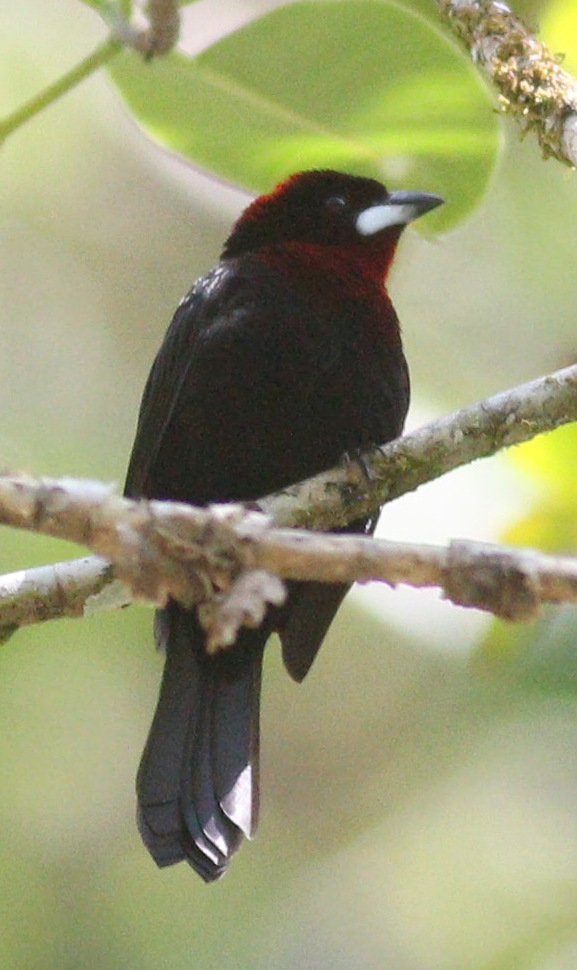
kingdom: Animalia
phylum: Chordata
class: Aves
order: Passeriformes
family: Thraupidae
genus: Ramphocelus
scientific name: Ramphocelus carbo
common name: Silver-beaked tanager
